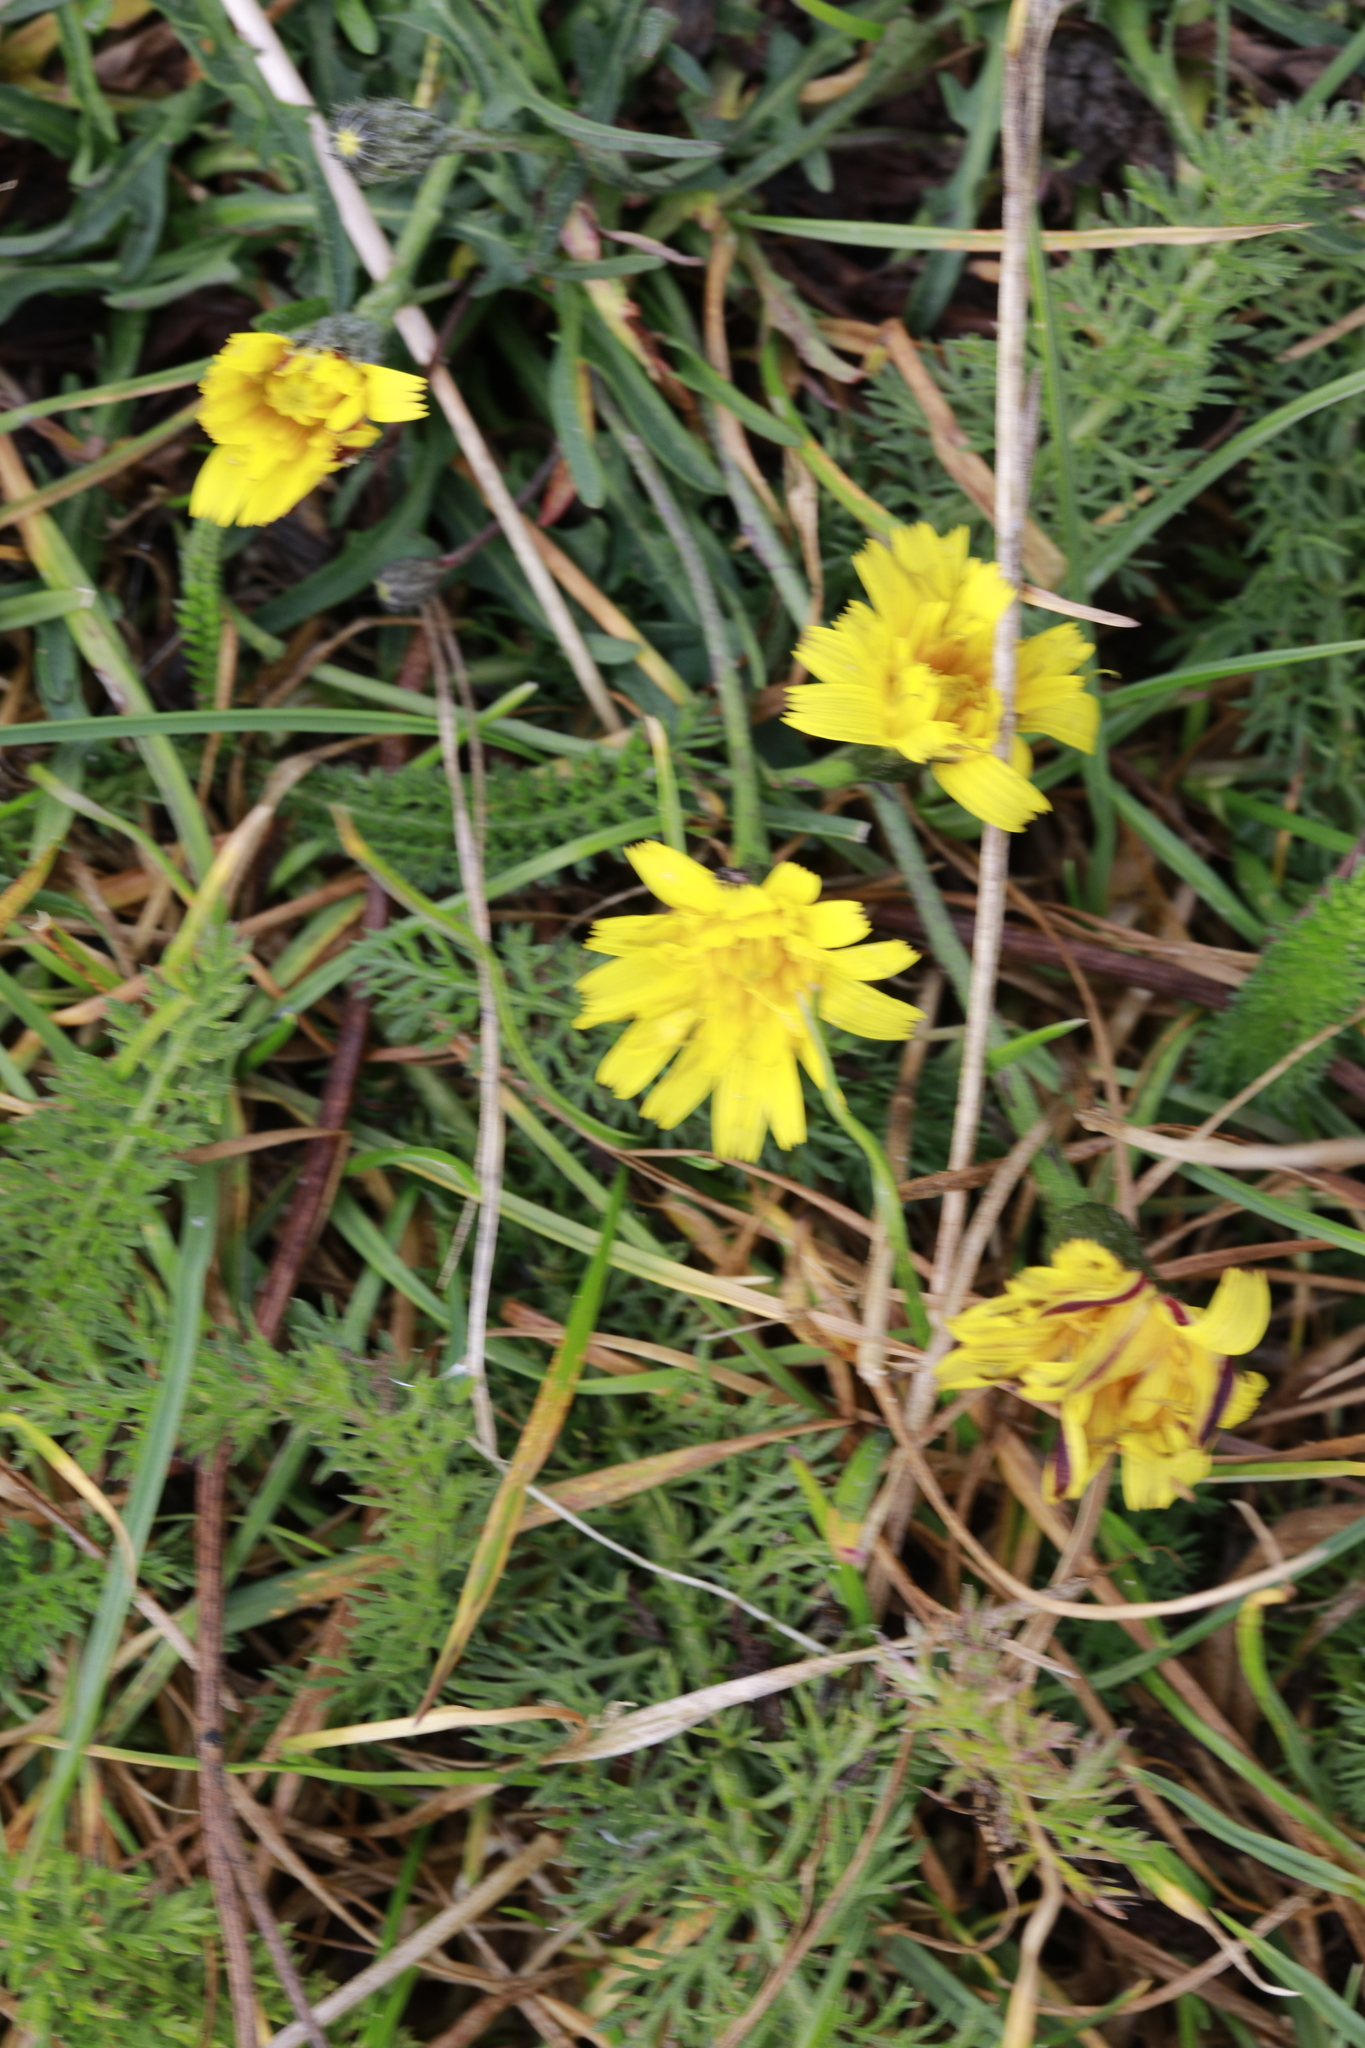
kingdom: Plantae
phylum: Tracheophyta
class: Magnoliopsida
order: Asterales
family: Asteraceae
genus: Scorzoneroides
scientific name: Scorzoneroides autumnalis
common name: Autumn hawkbit
